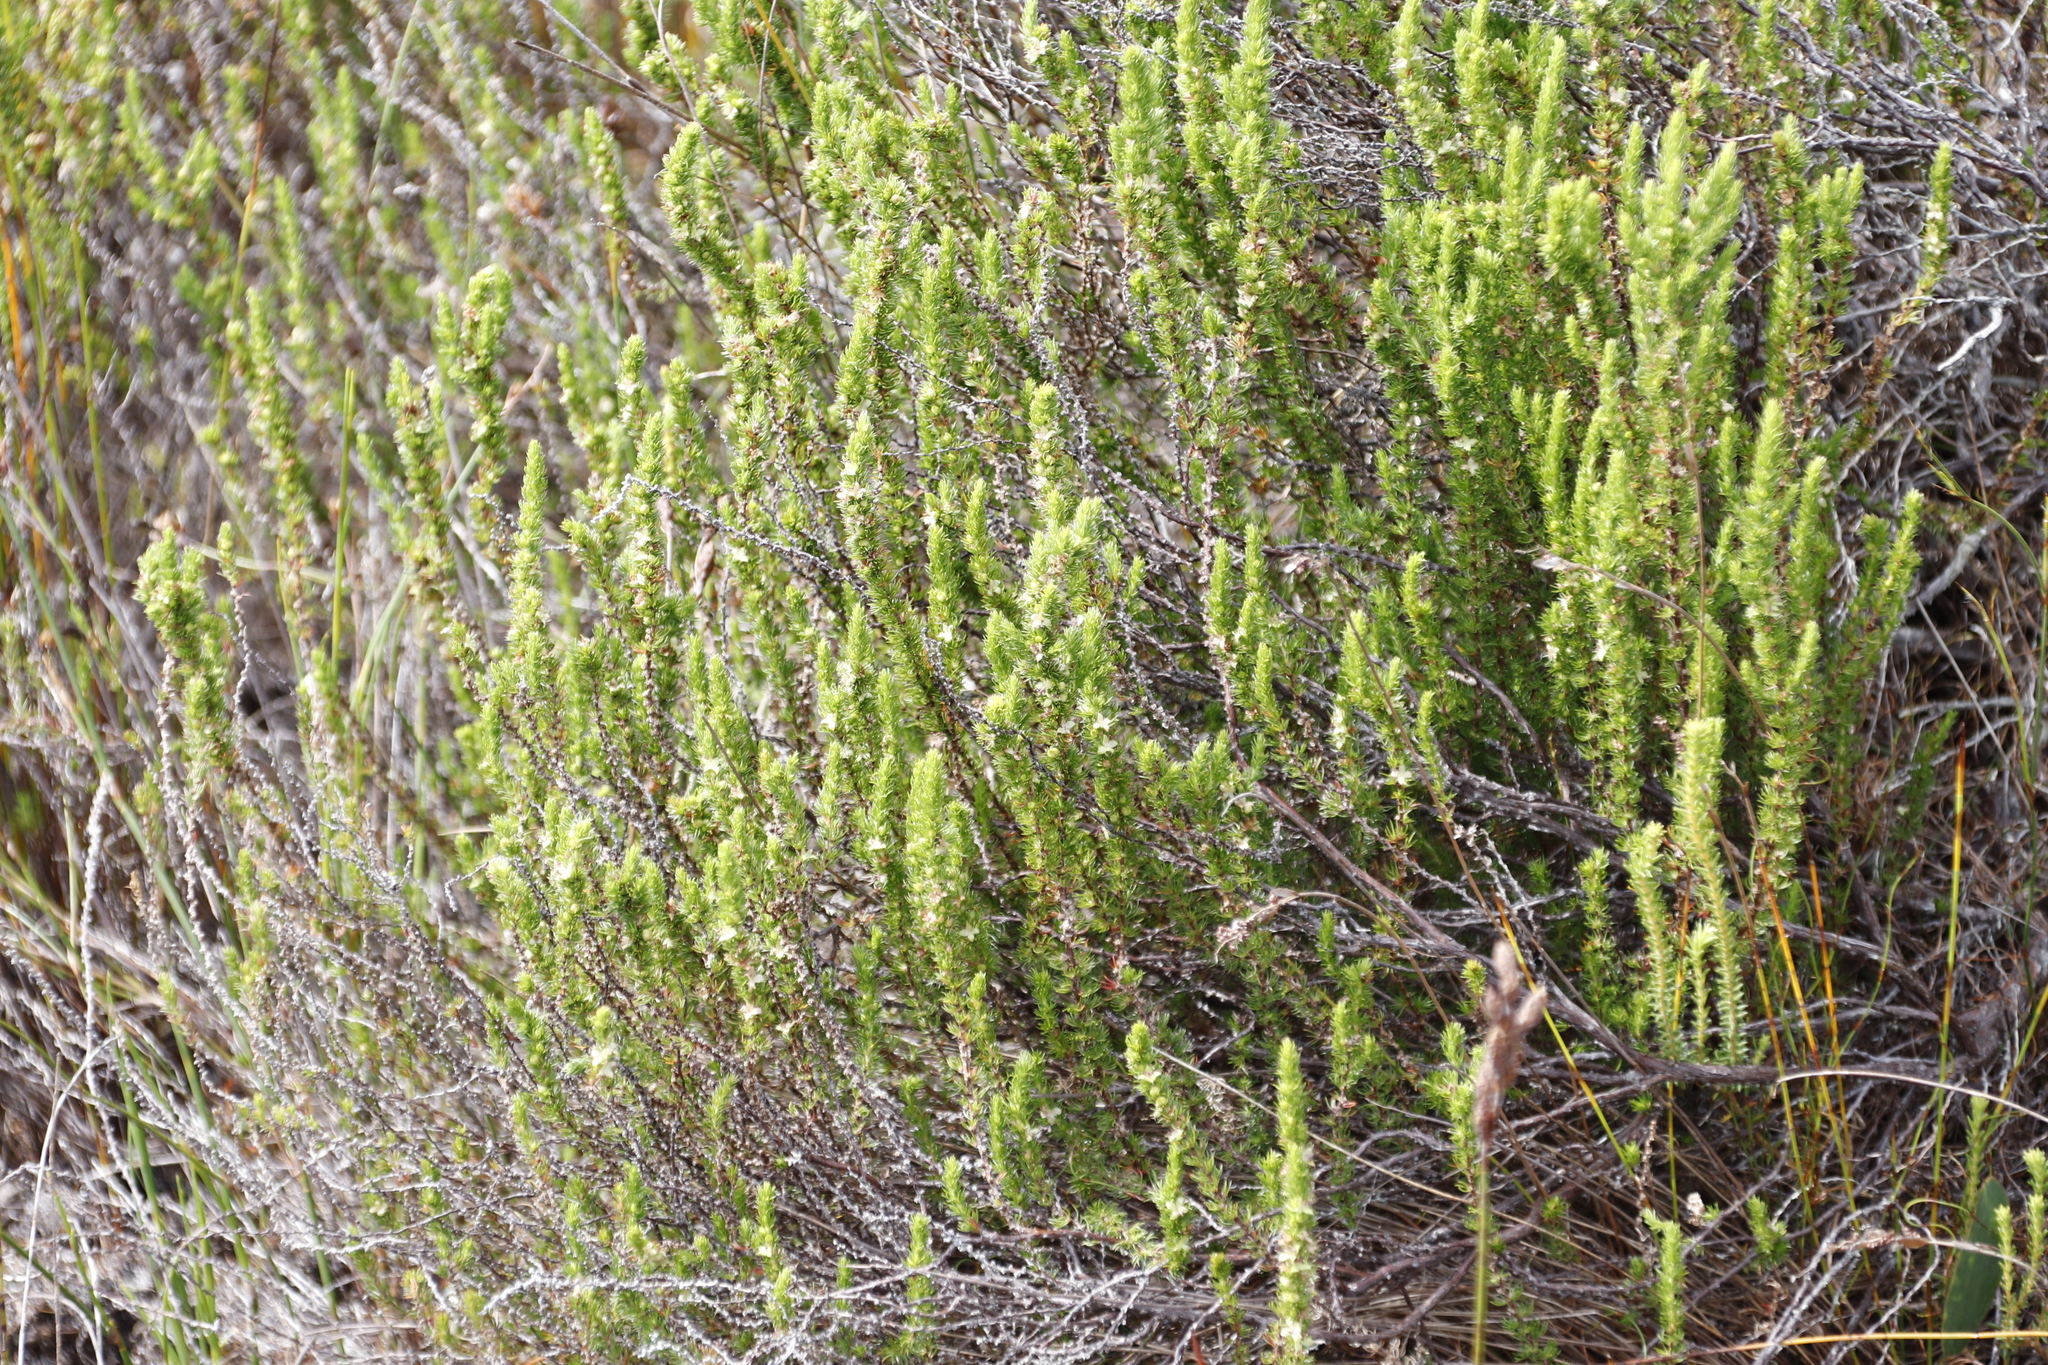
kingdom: Plantae
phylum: Tracheophyta
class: Magnoliopsida
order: Rosales
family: Rosaceae
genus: Cliffortia
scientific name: Cliffortia subsetacea
